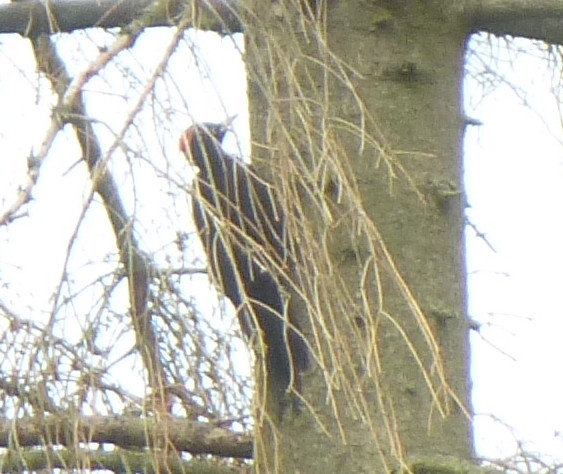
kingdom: Animalia
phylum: Chordata
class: Aves
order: Piciformes
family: Picidae
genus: Dryocopus
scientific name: Dryocopus martius
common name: Black woodpecker
